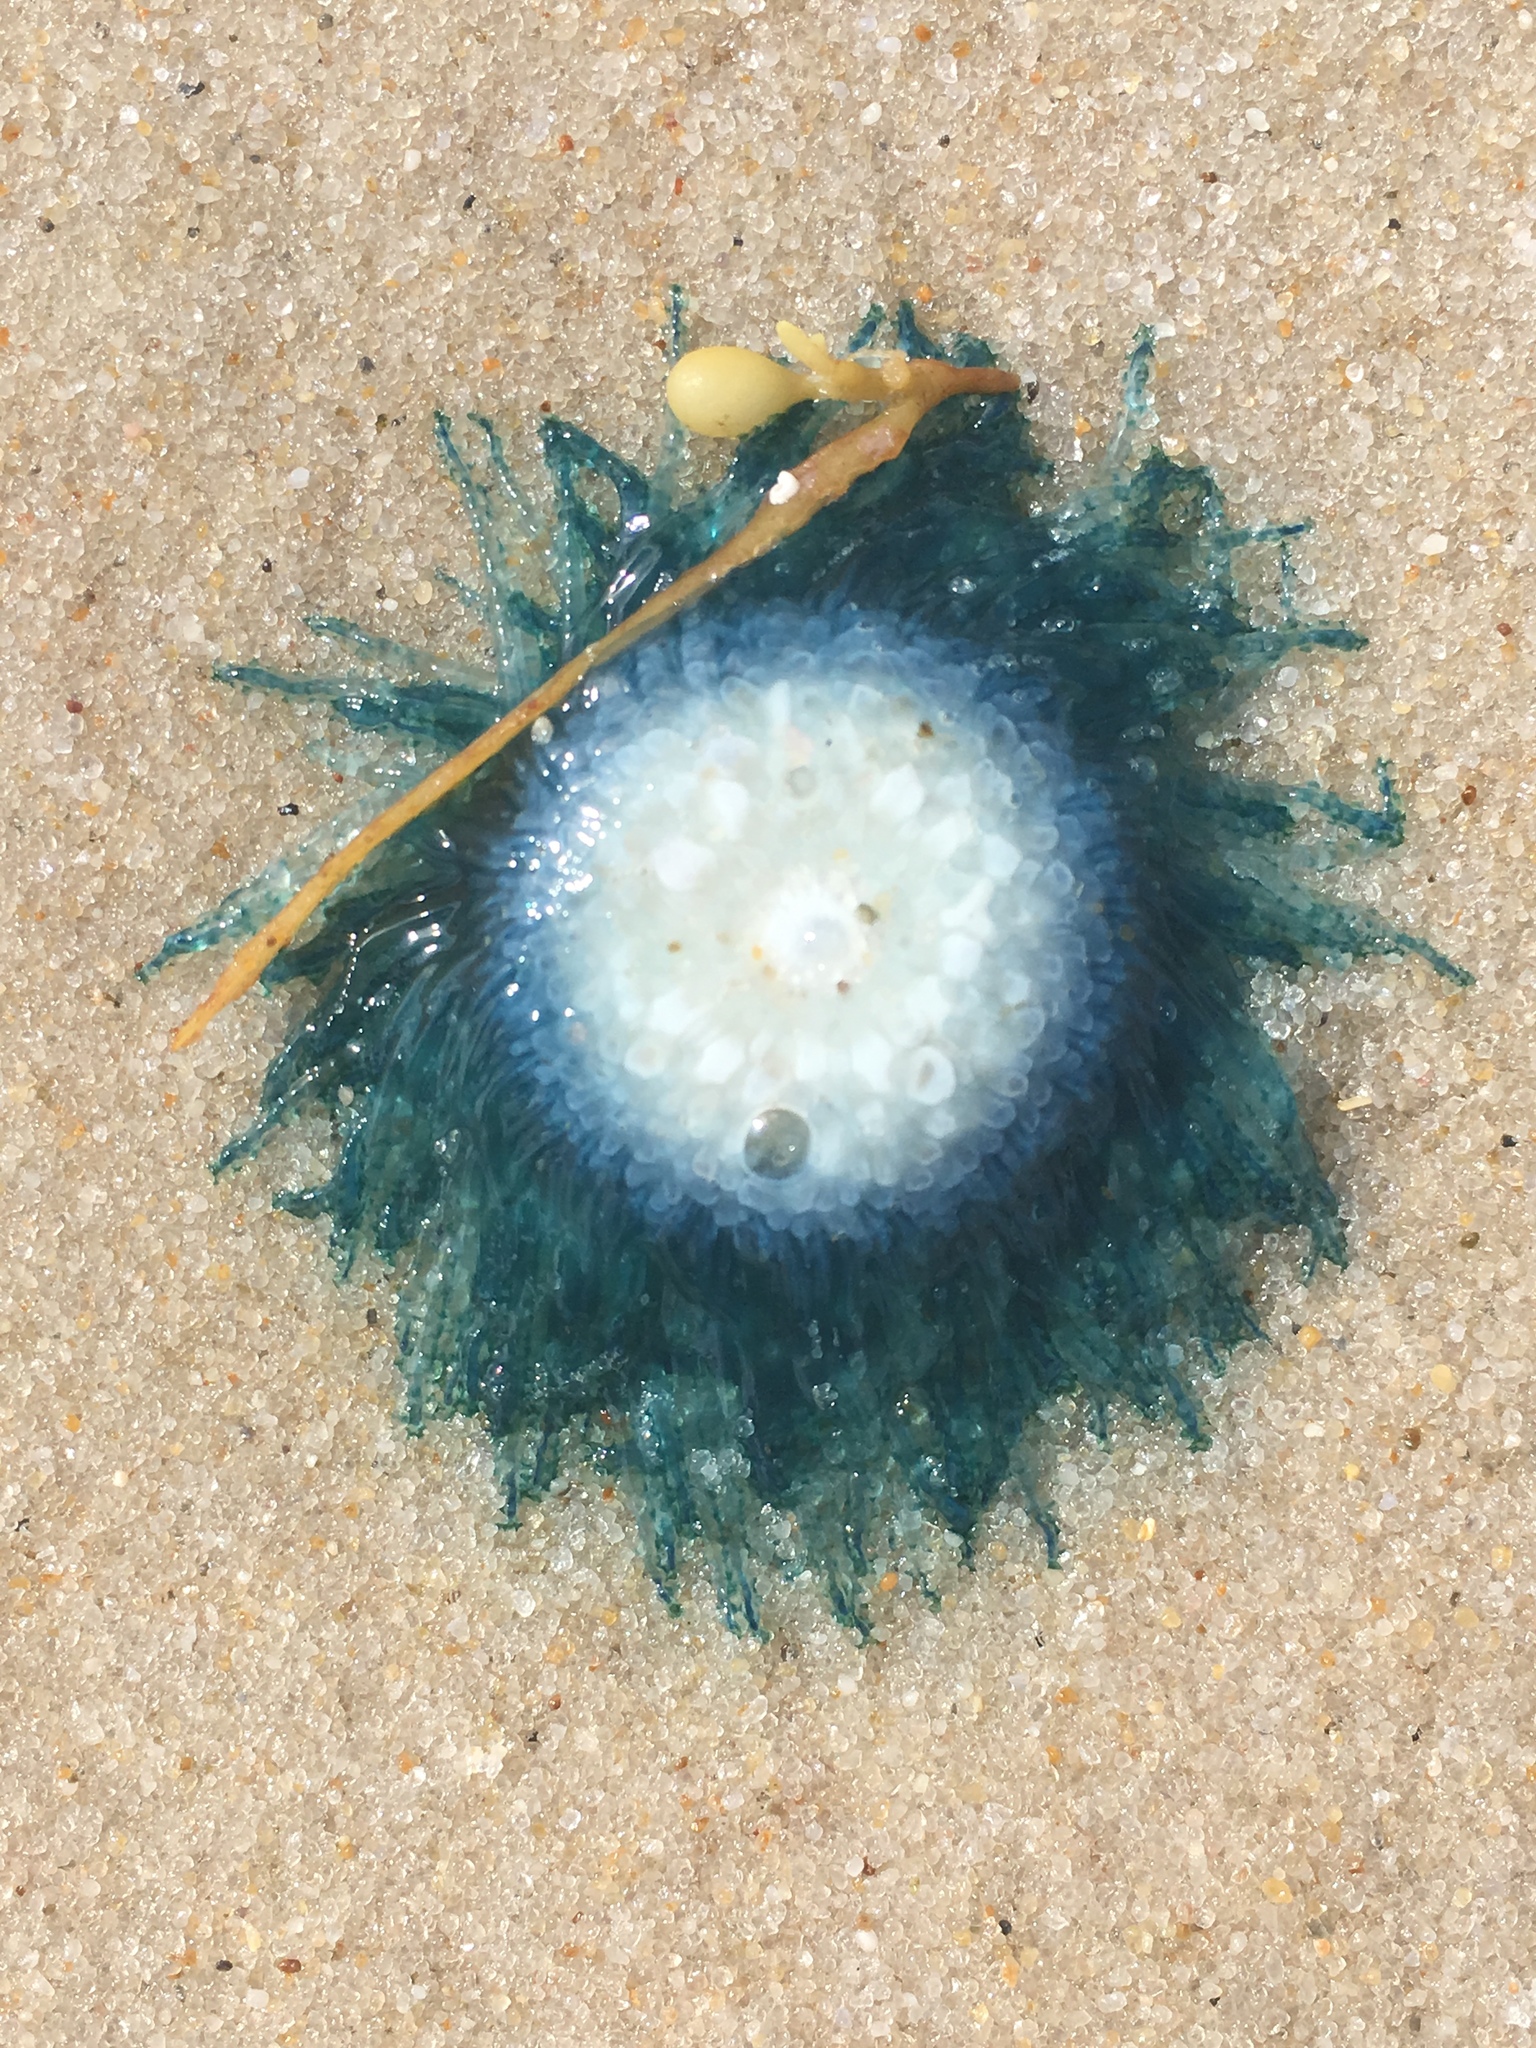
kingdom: Animalia
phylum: Cnidaria
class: Hydrozoa
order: Anthoathecata
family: Porpitidae
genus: Porpita
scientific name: Porpita porpita
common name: Blue button
